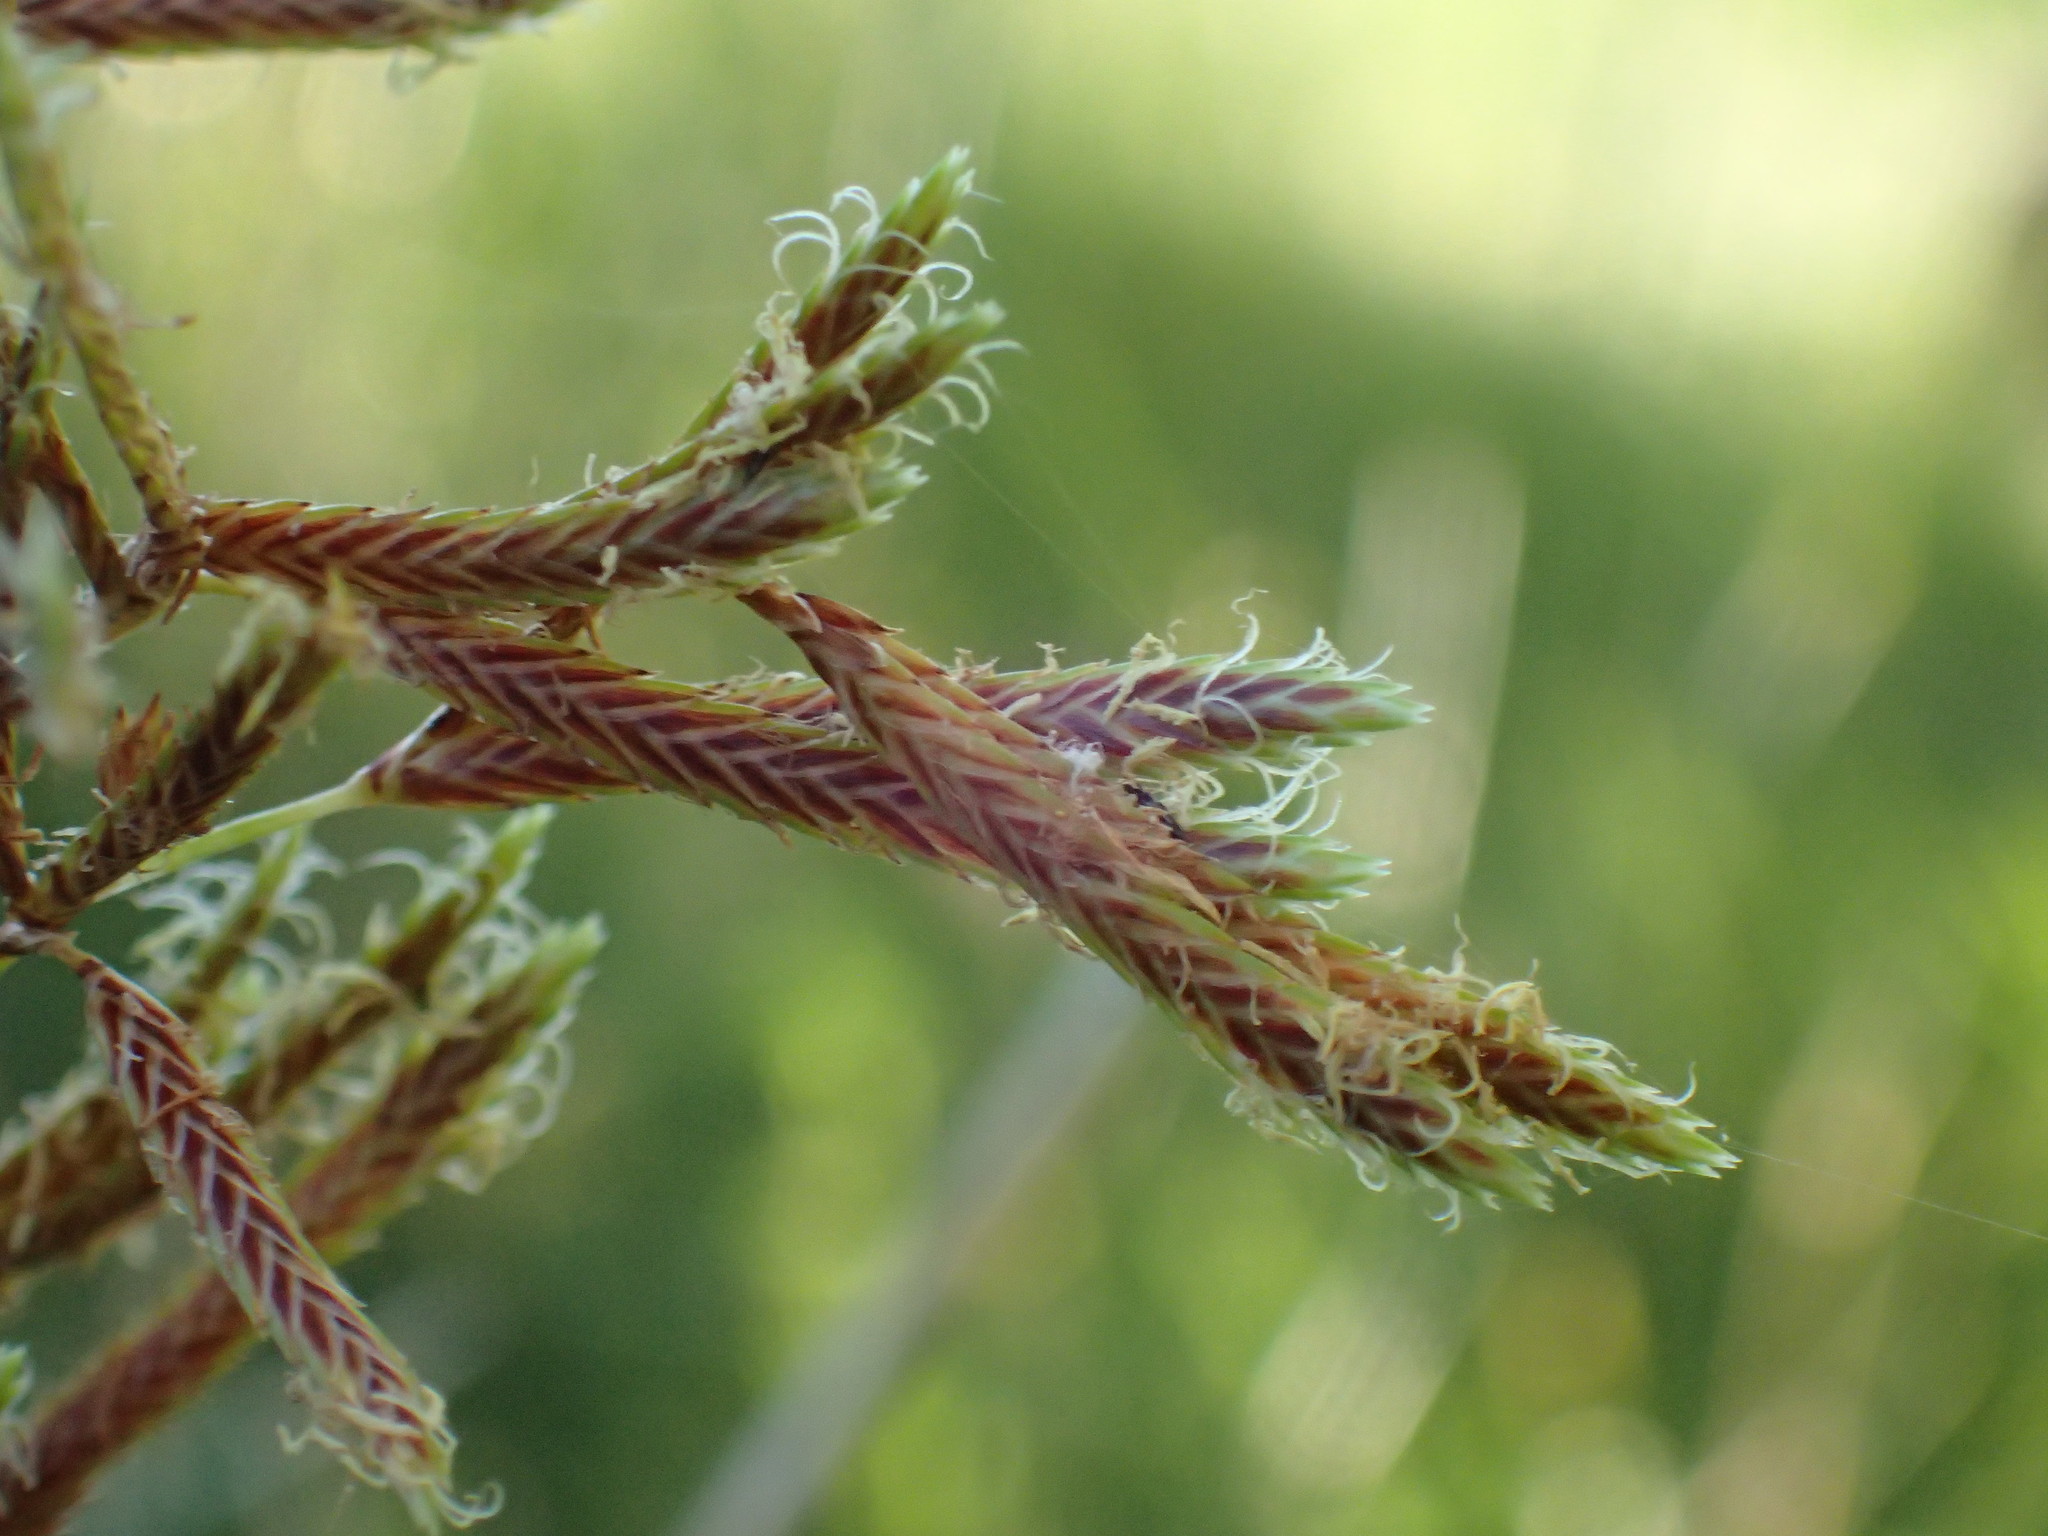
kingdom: Plantae
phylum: Tracheophyta
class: Liliopsida
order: Poales
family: Cyperaceae
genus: Cyperus
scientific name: Cyperus marginatus
